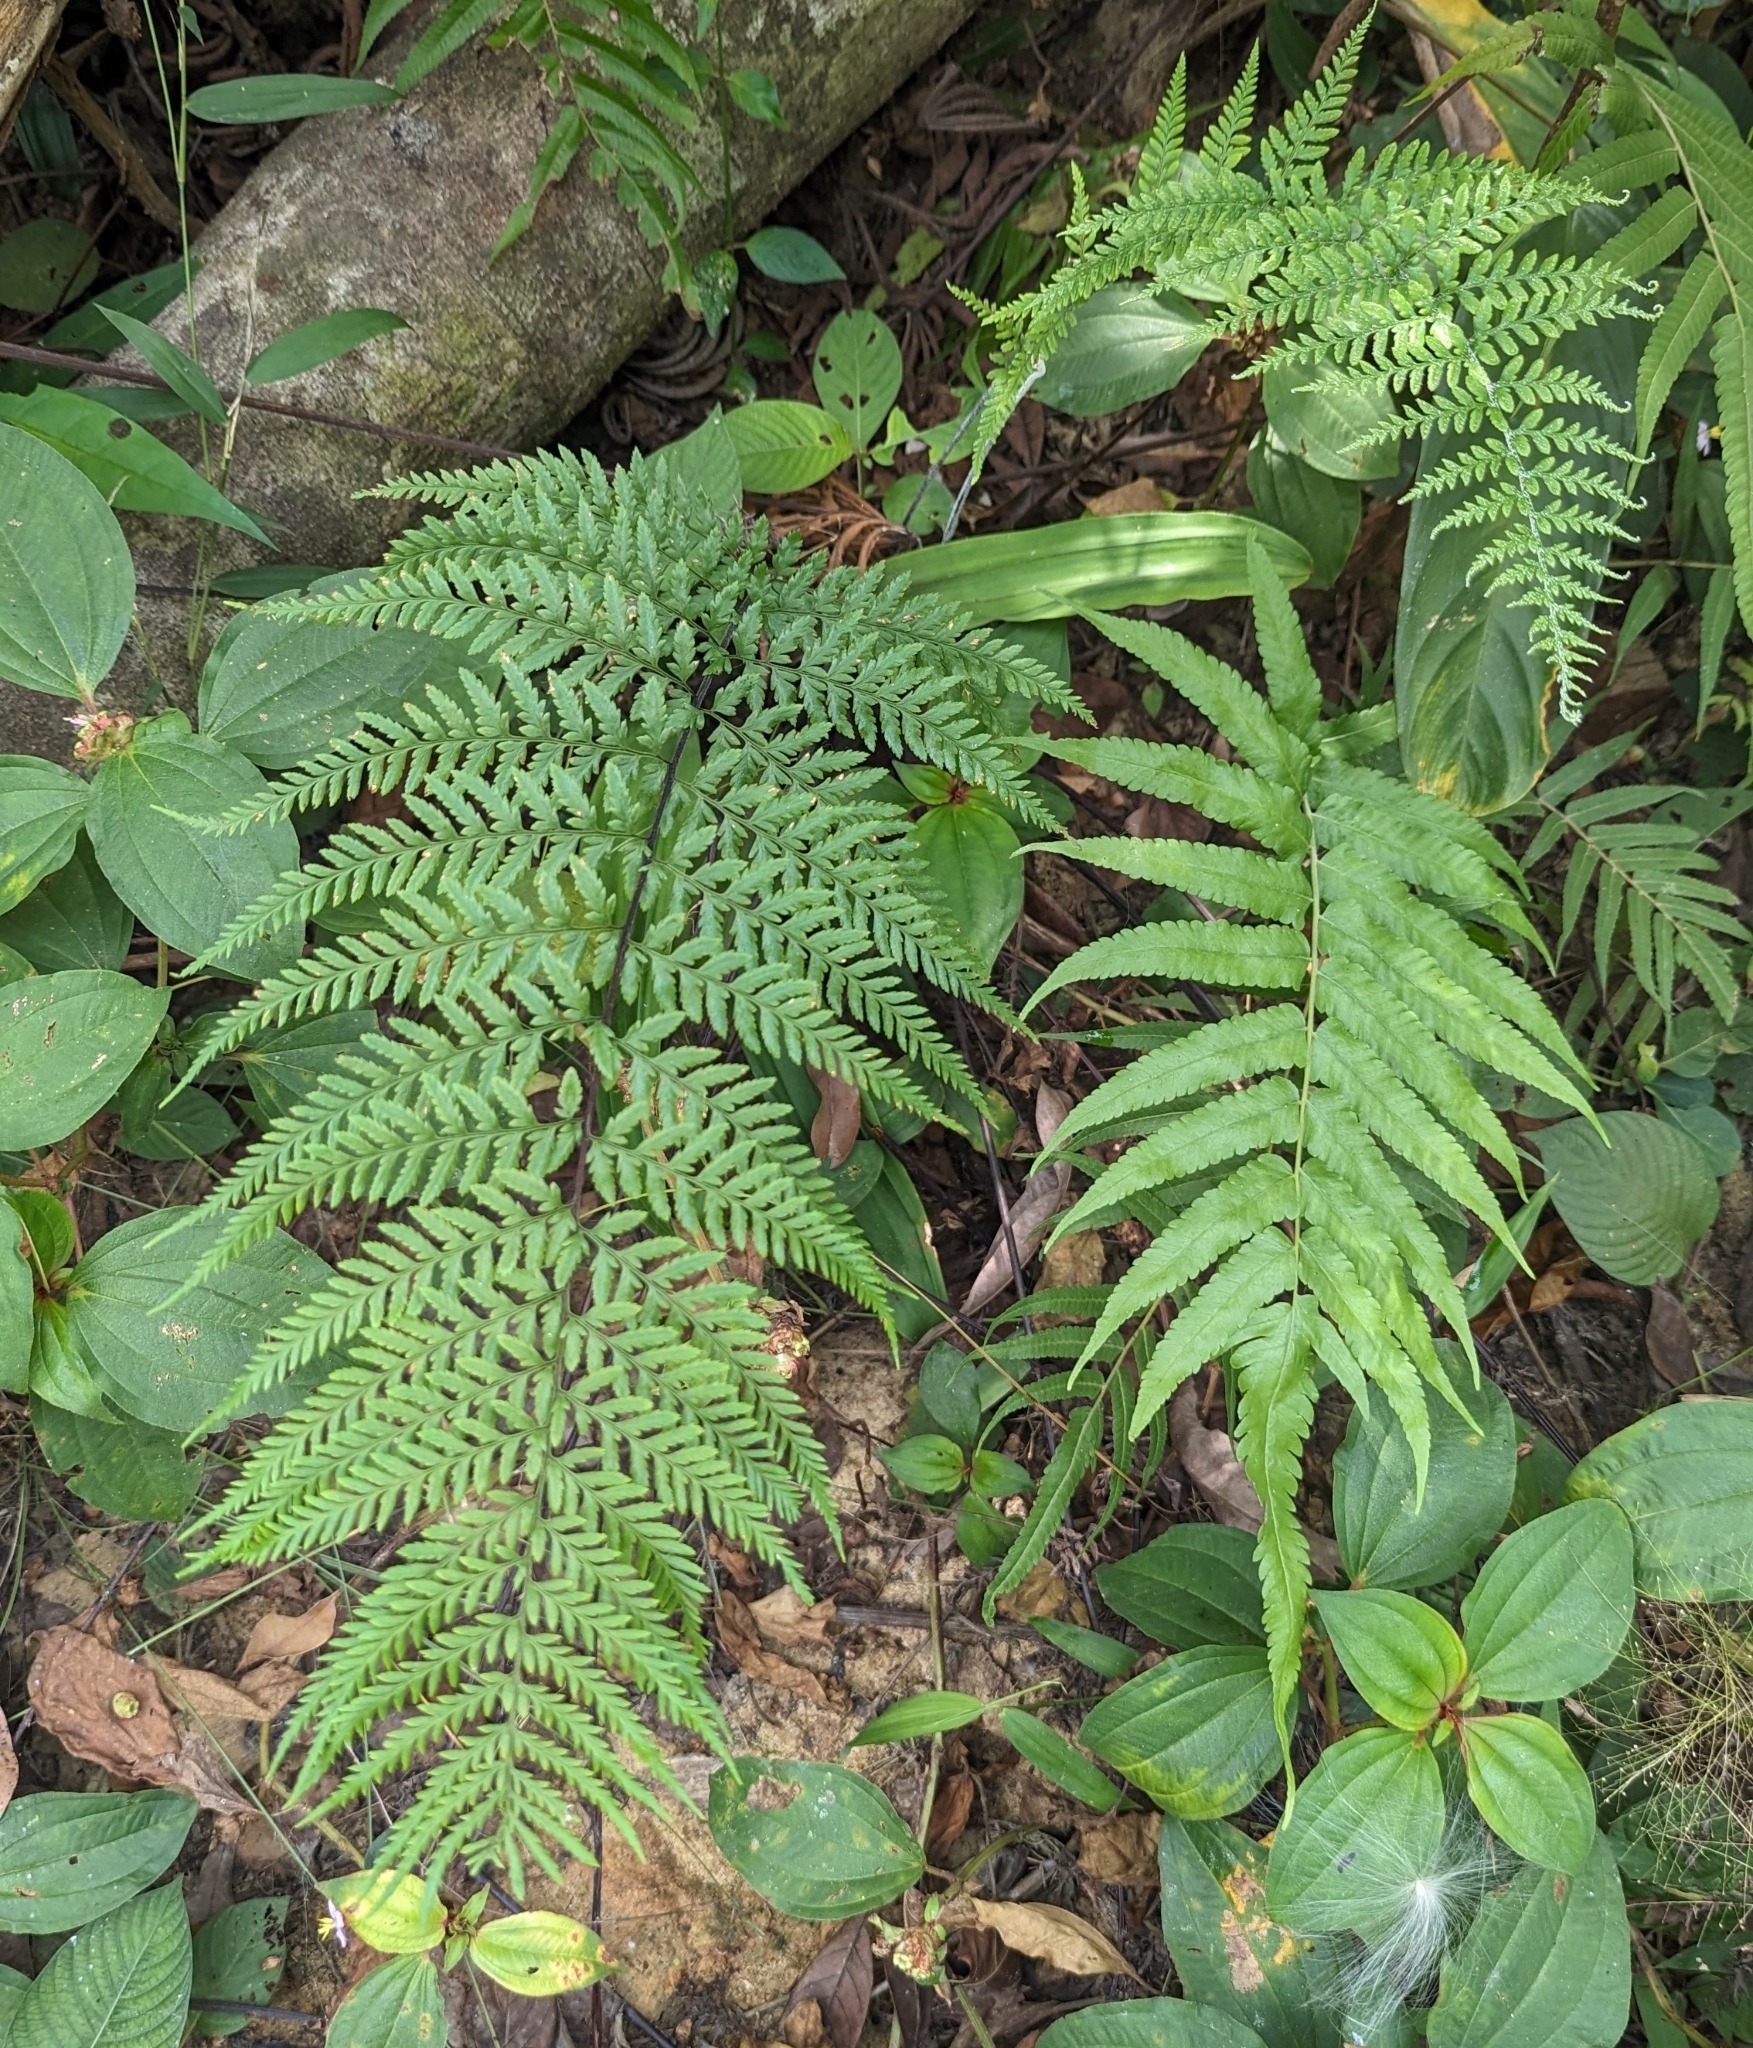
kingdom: Plantae
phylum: Tracheophyta
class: Polypodiopsida
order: Polypodiales
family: Pteridaceae
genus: Pityrogramma
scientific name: Pityrogramma calomelanos
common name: Dixie silverback fern
